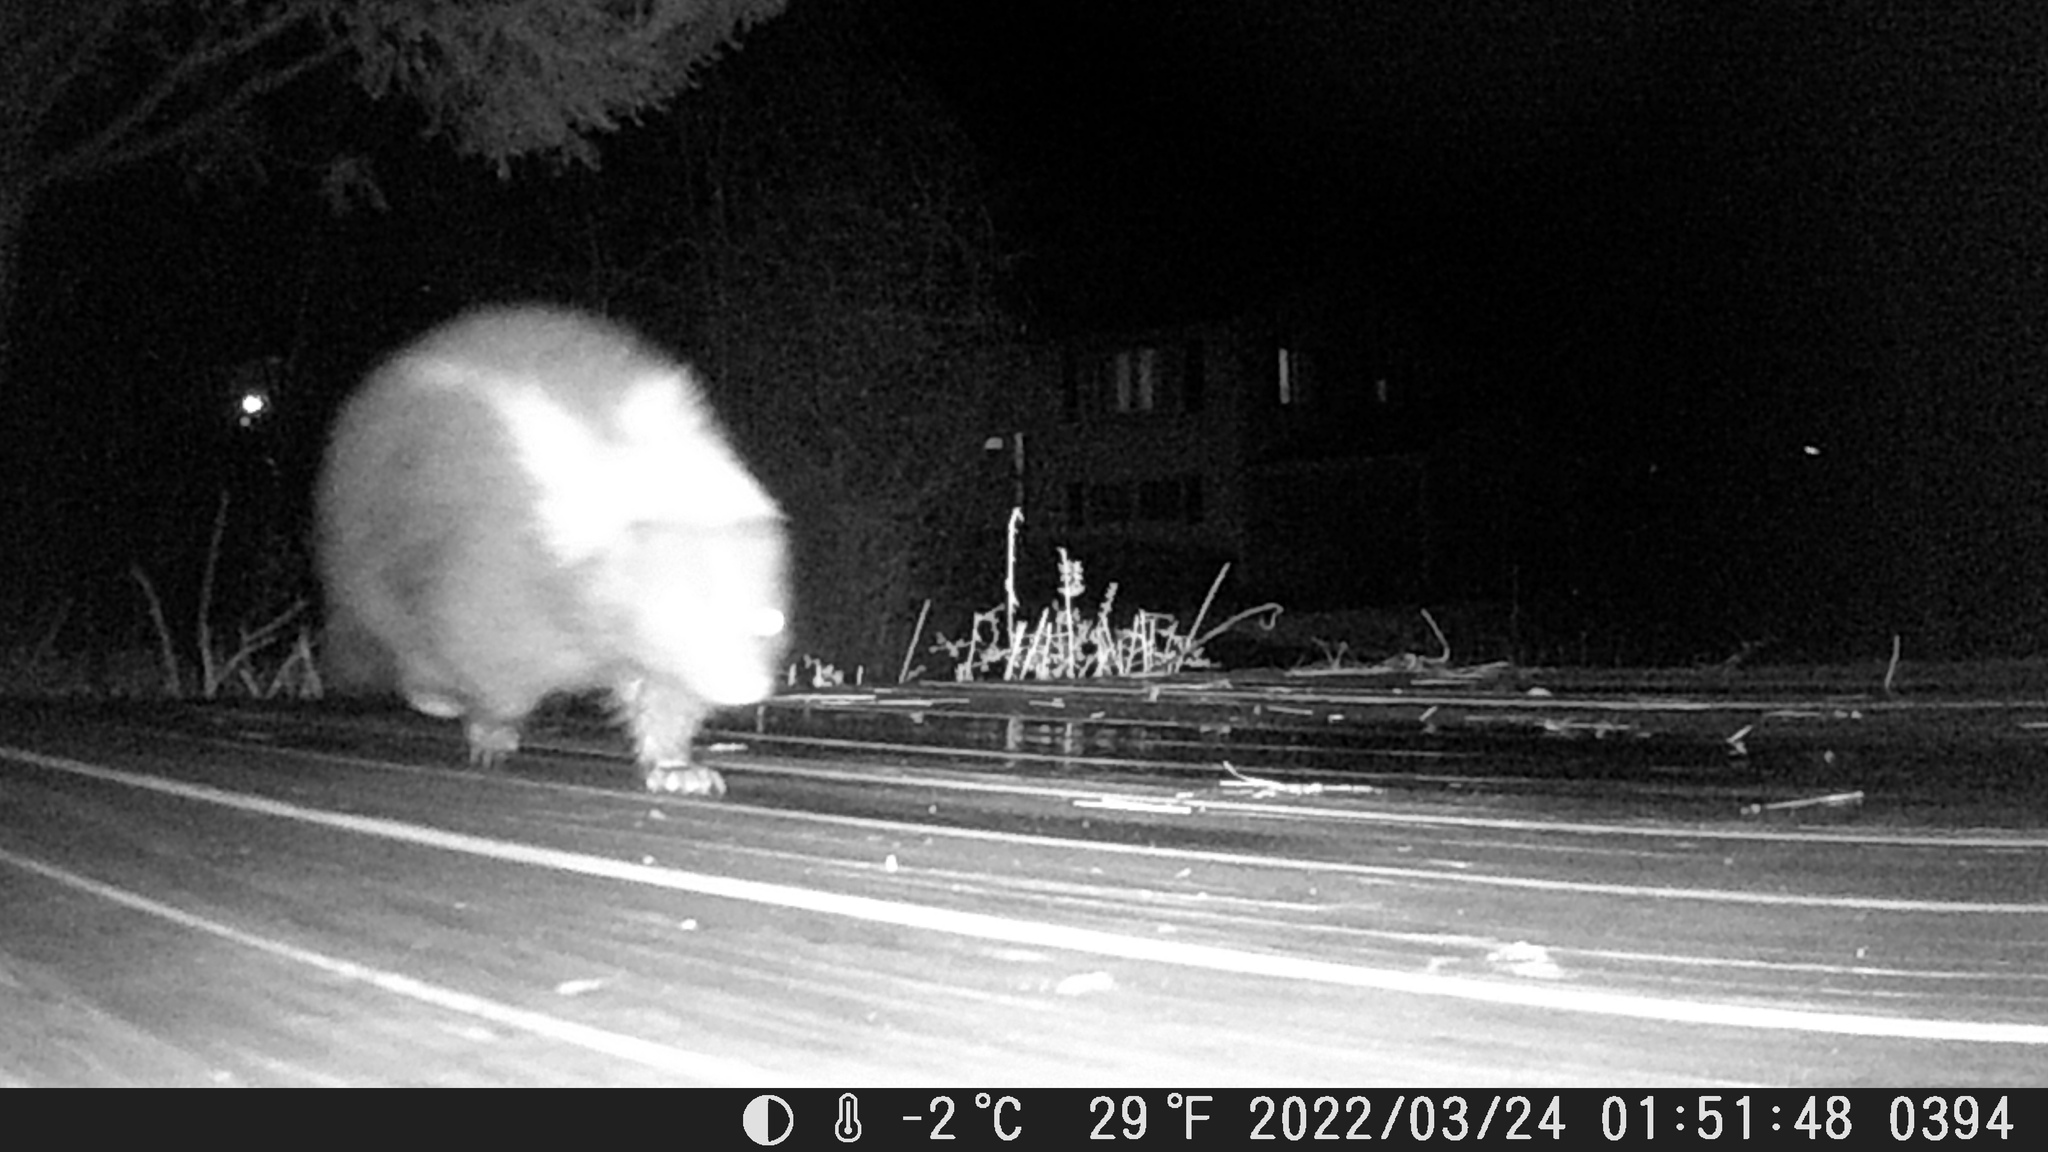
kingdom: Animalia
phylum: Chordata
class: Mammalia
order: Carnivora
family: Mephitidae
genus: Mephitis
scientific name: Mephitis mephitis
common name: Striped skunk
